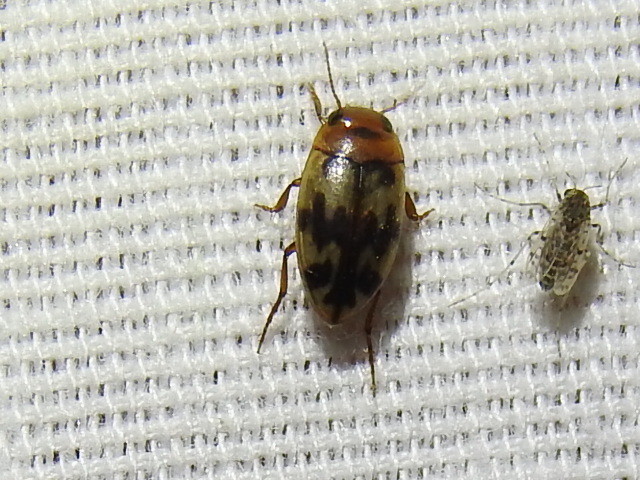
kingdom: Animalia
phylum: Arthropoda
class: Insecta
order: Coleoptera
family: Dytiscidae
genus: Heterosternuta
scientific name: Heterosternuta diversicornis
